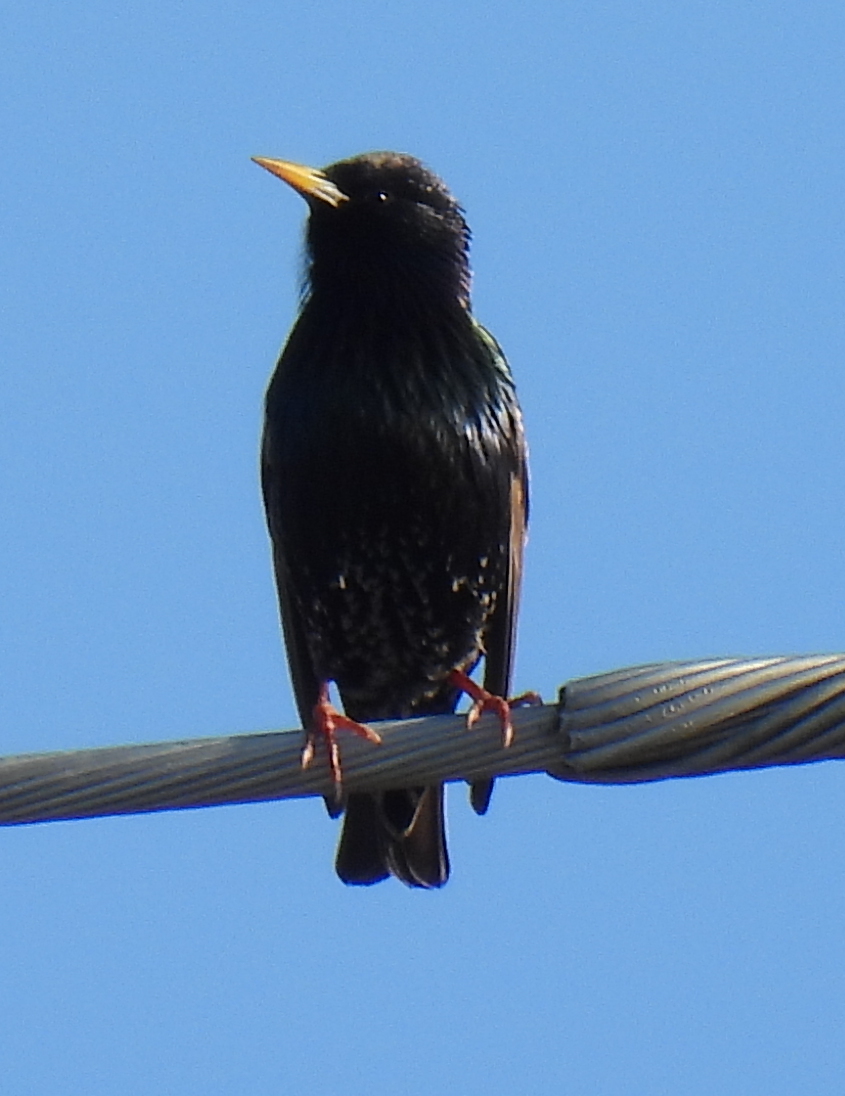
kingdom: Animalia
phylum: Chordata
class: Aves
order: Passeriformes
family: Sturnidae
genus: Sturnus
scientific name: Sturnus vulgaris
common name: Common starling
